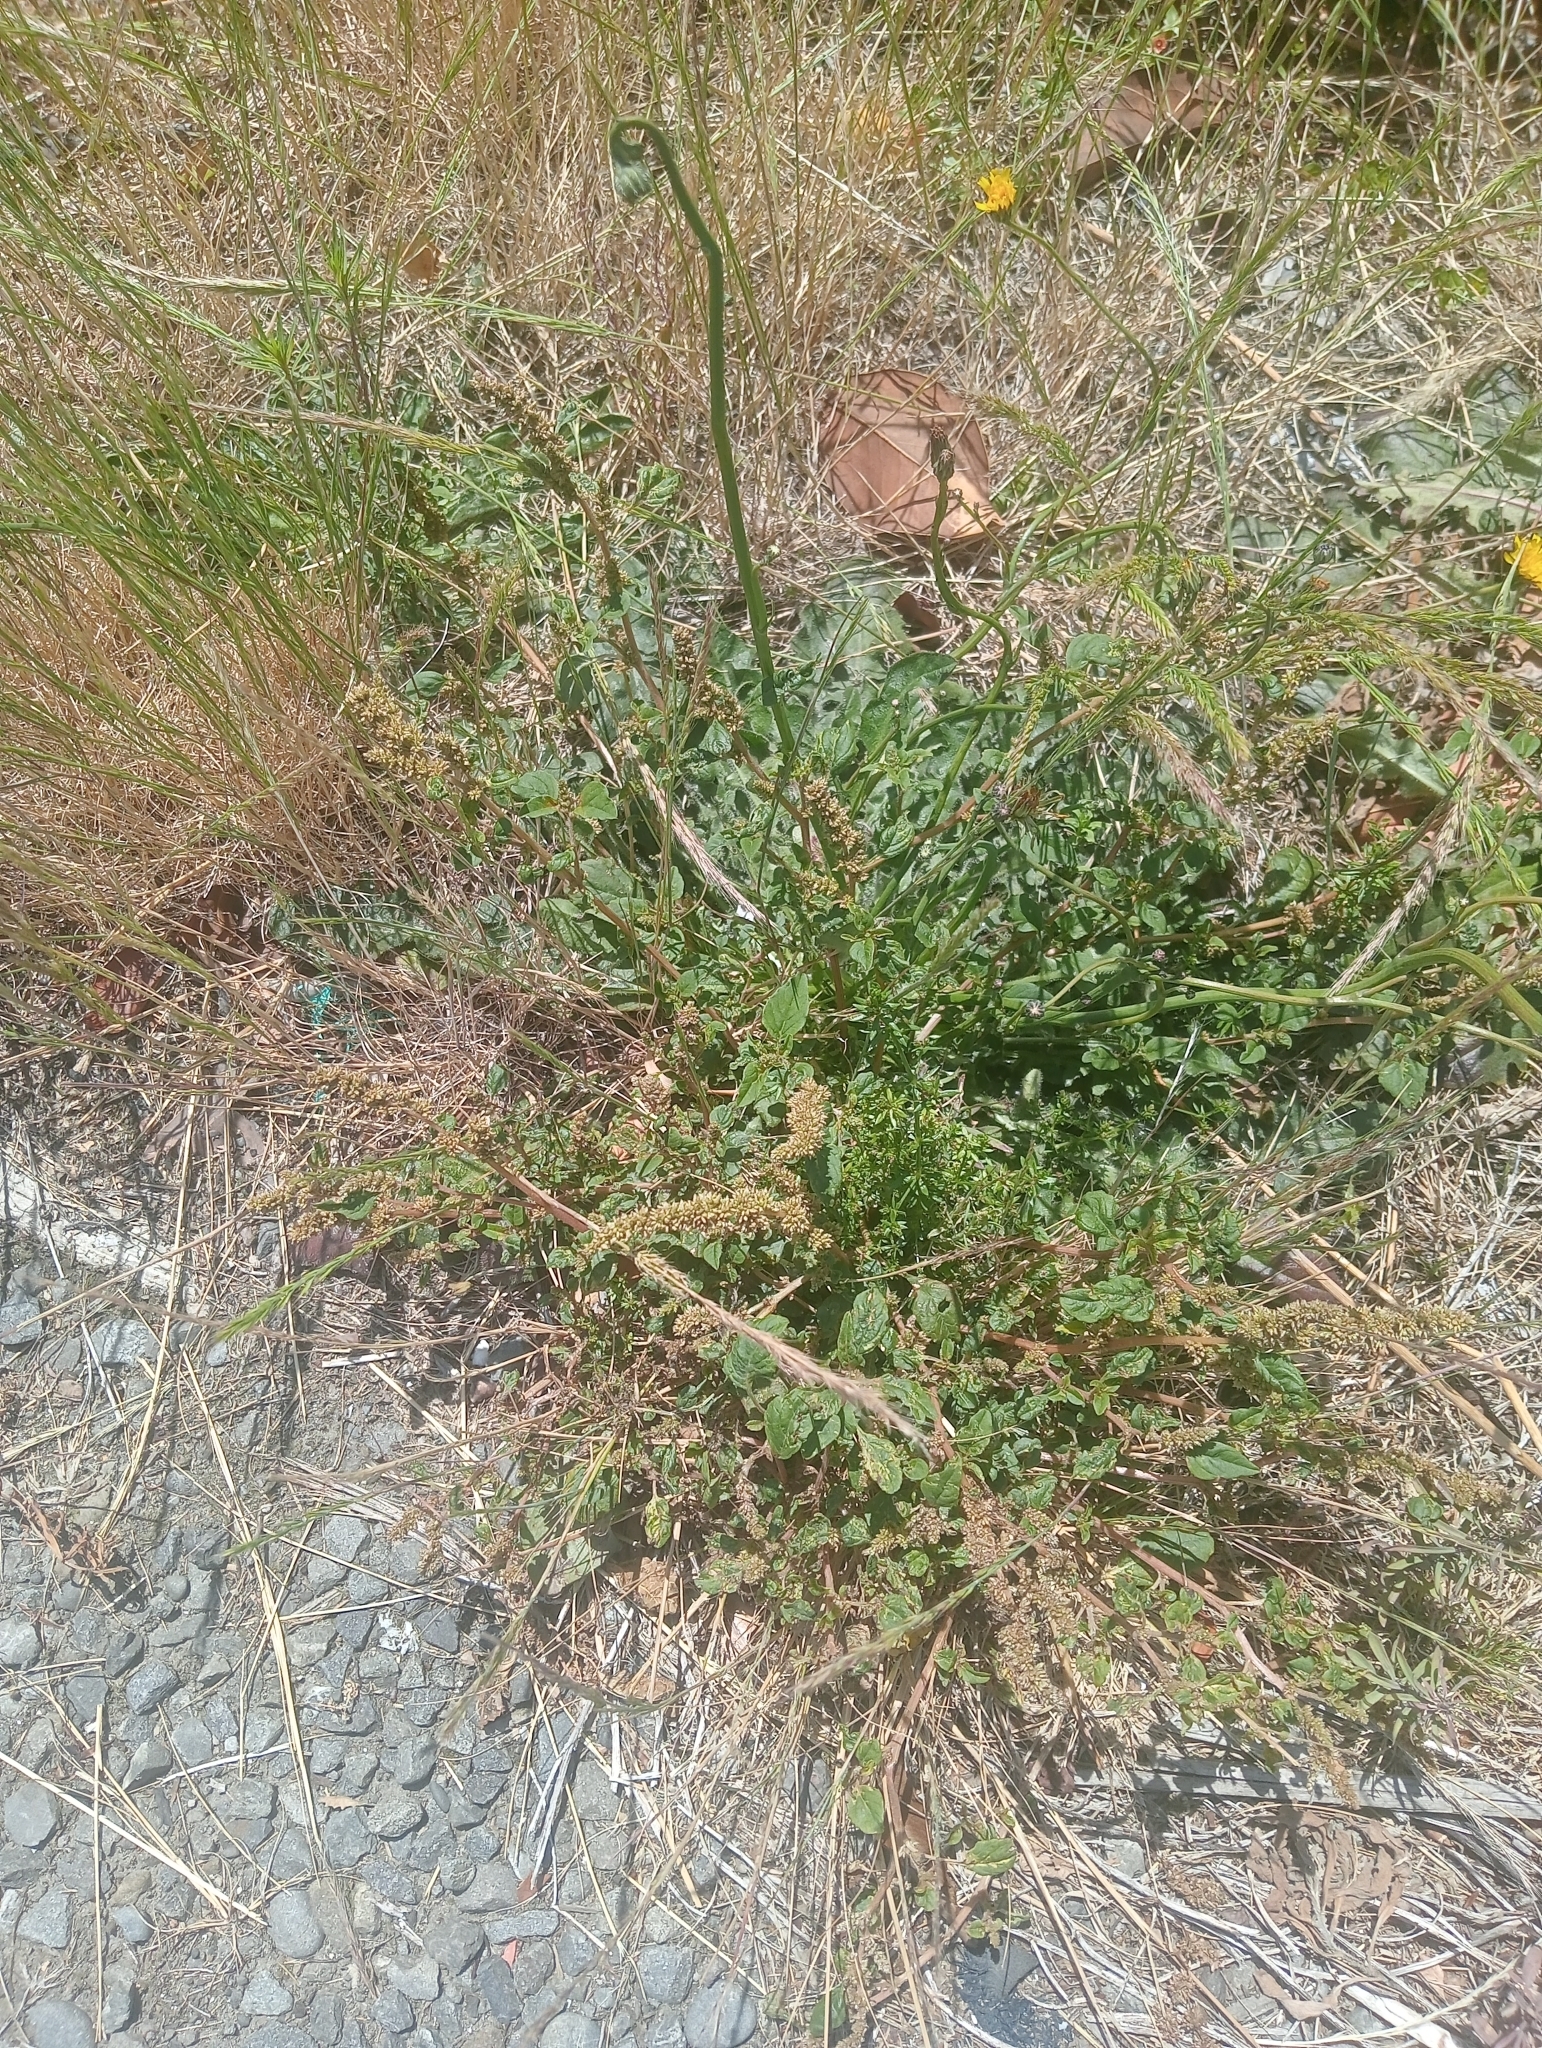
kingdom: Plantae
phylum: Tracheophyta
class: Magnoliopsida
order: Caryophyllales
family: Amaranthaceae
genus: Amaranthus
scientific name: Amaranthus deflexus
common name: Perennial pigweed
